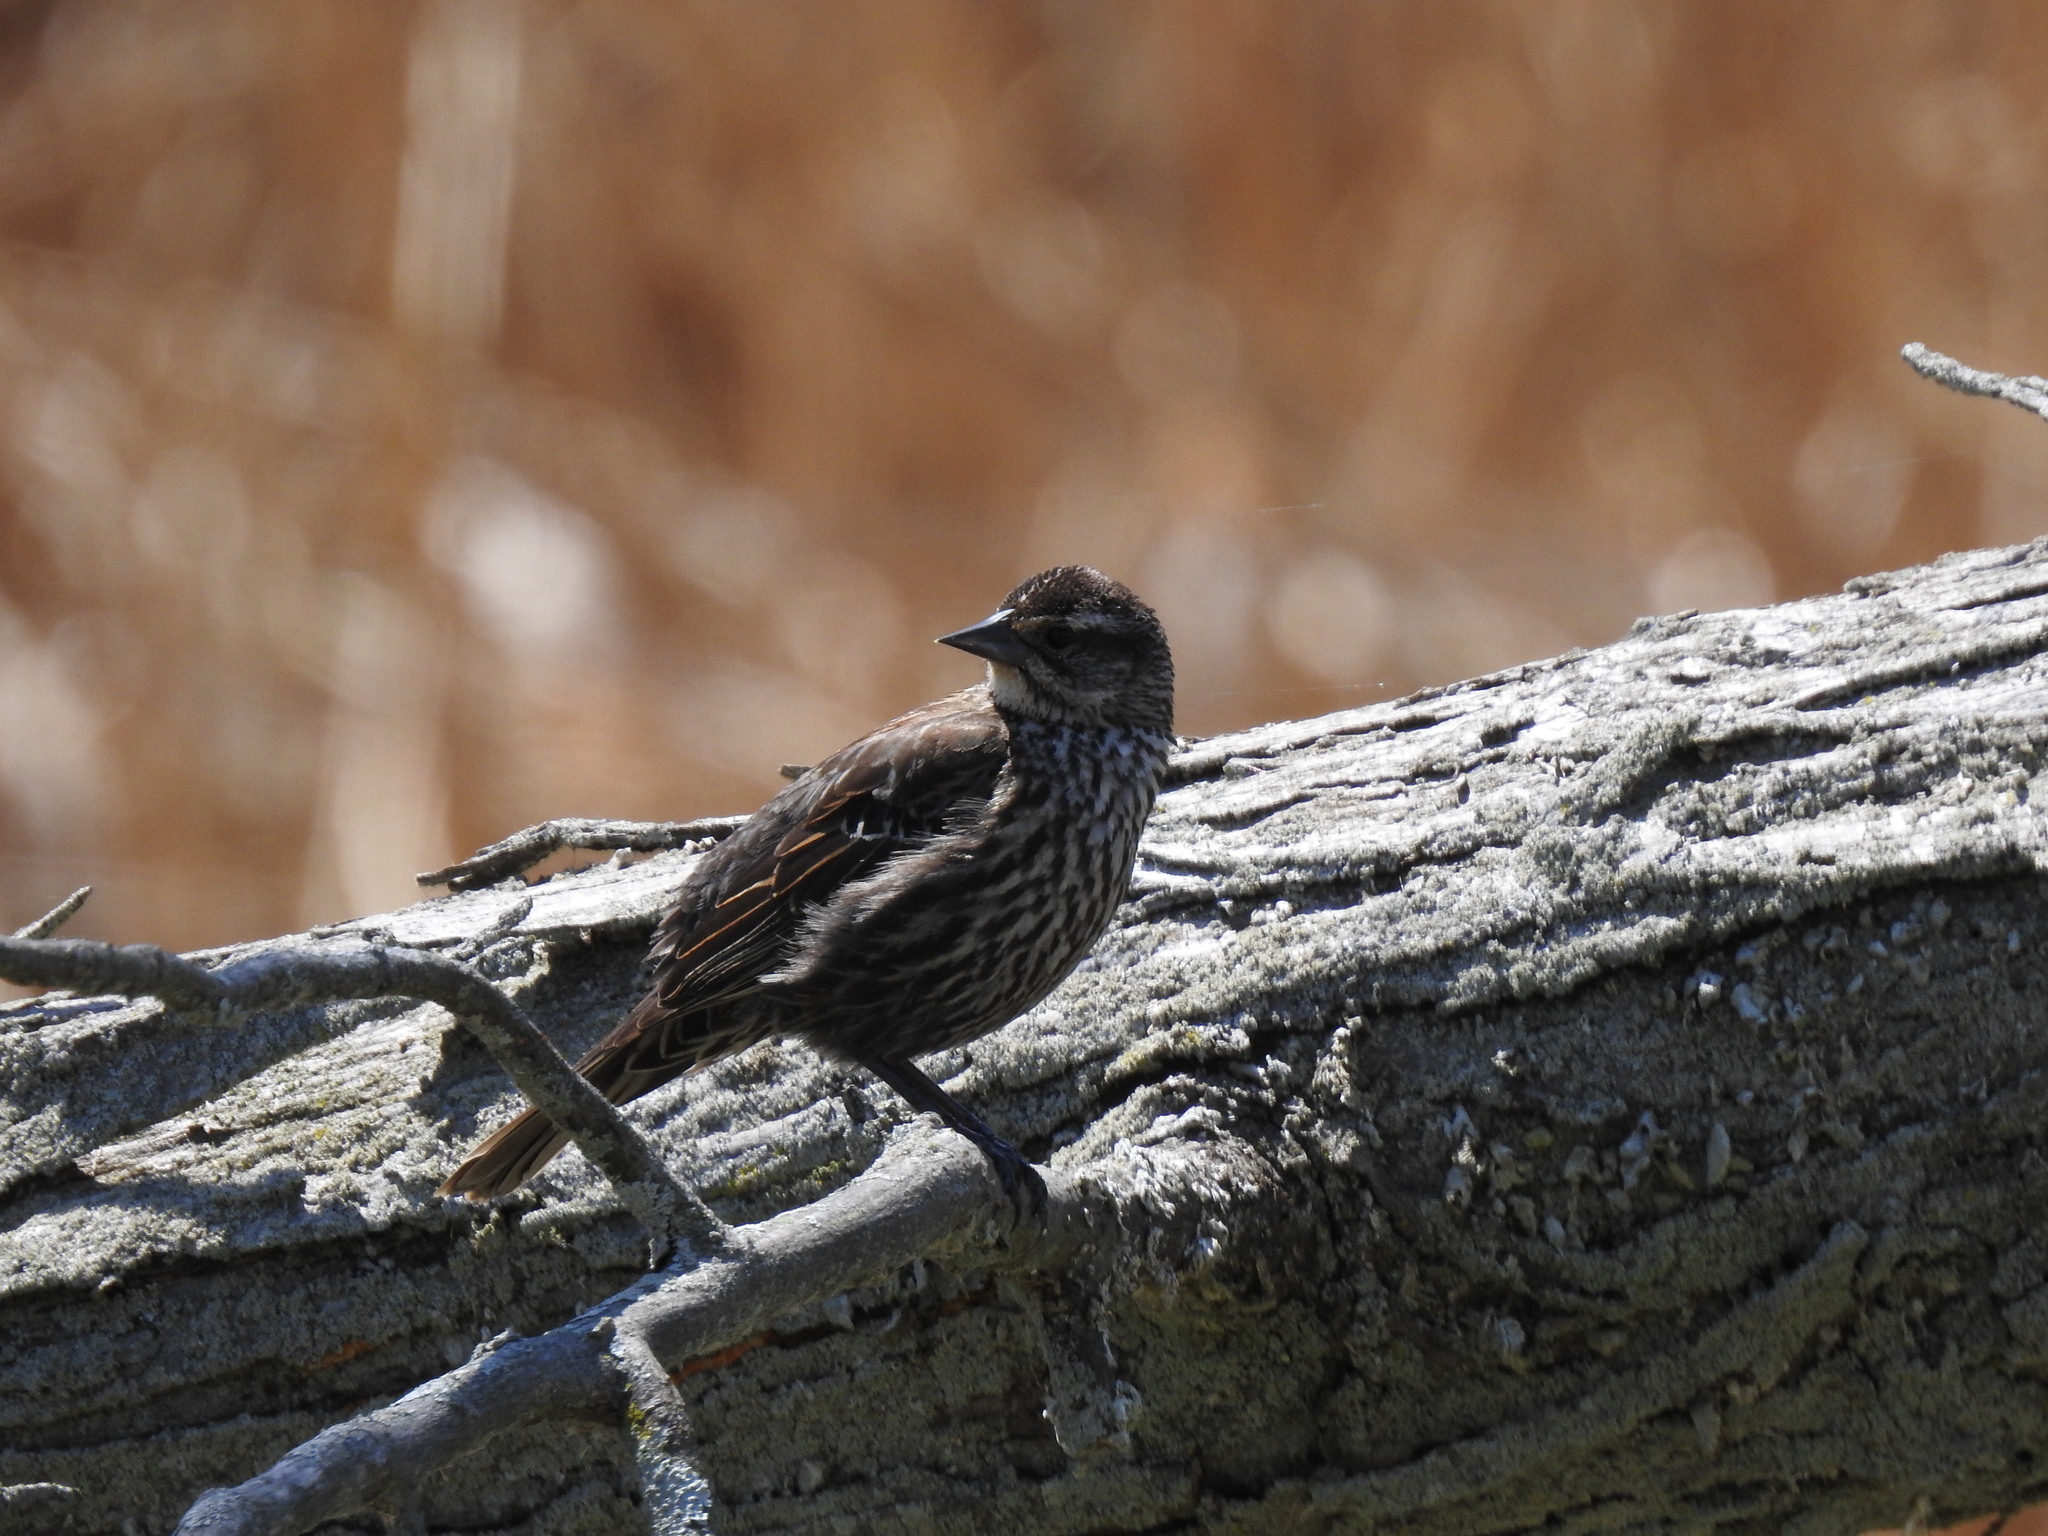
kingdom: Animalia
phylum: Chordata
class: Aves
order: Passeriformes
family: Icteridae
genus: Agelaius
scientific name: Agelaius phoeniceus
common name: Red-winged blackbird
